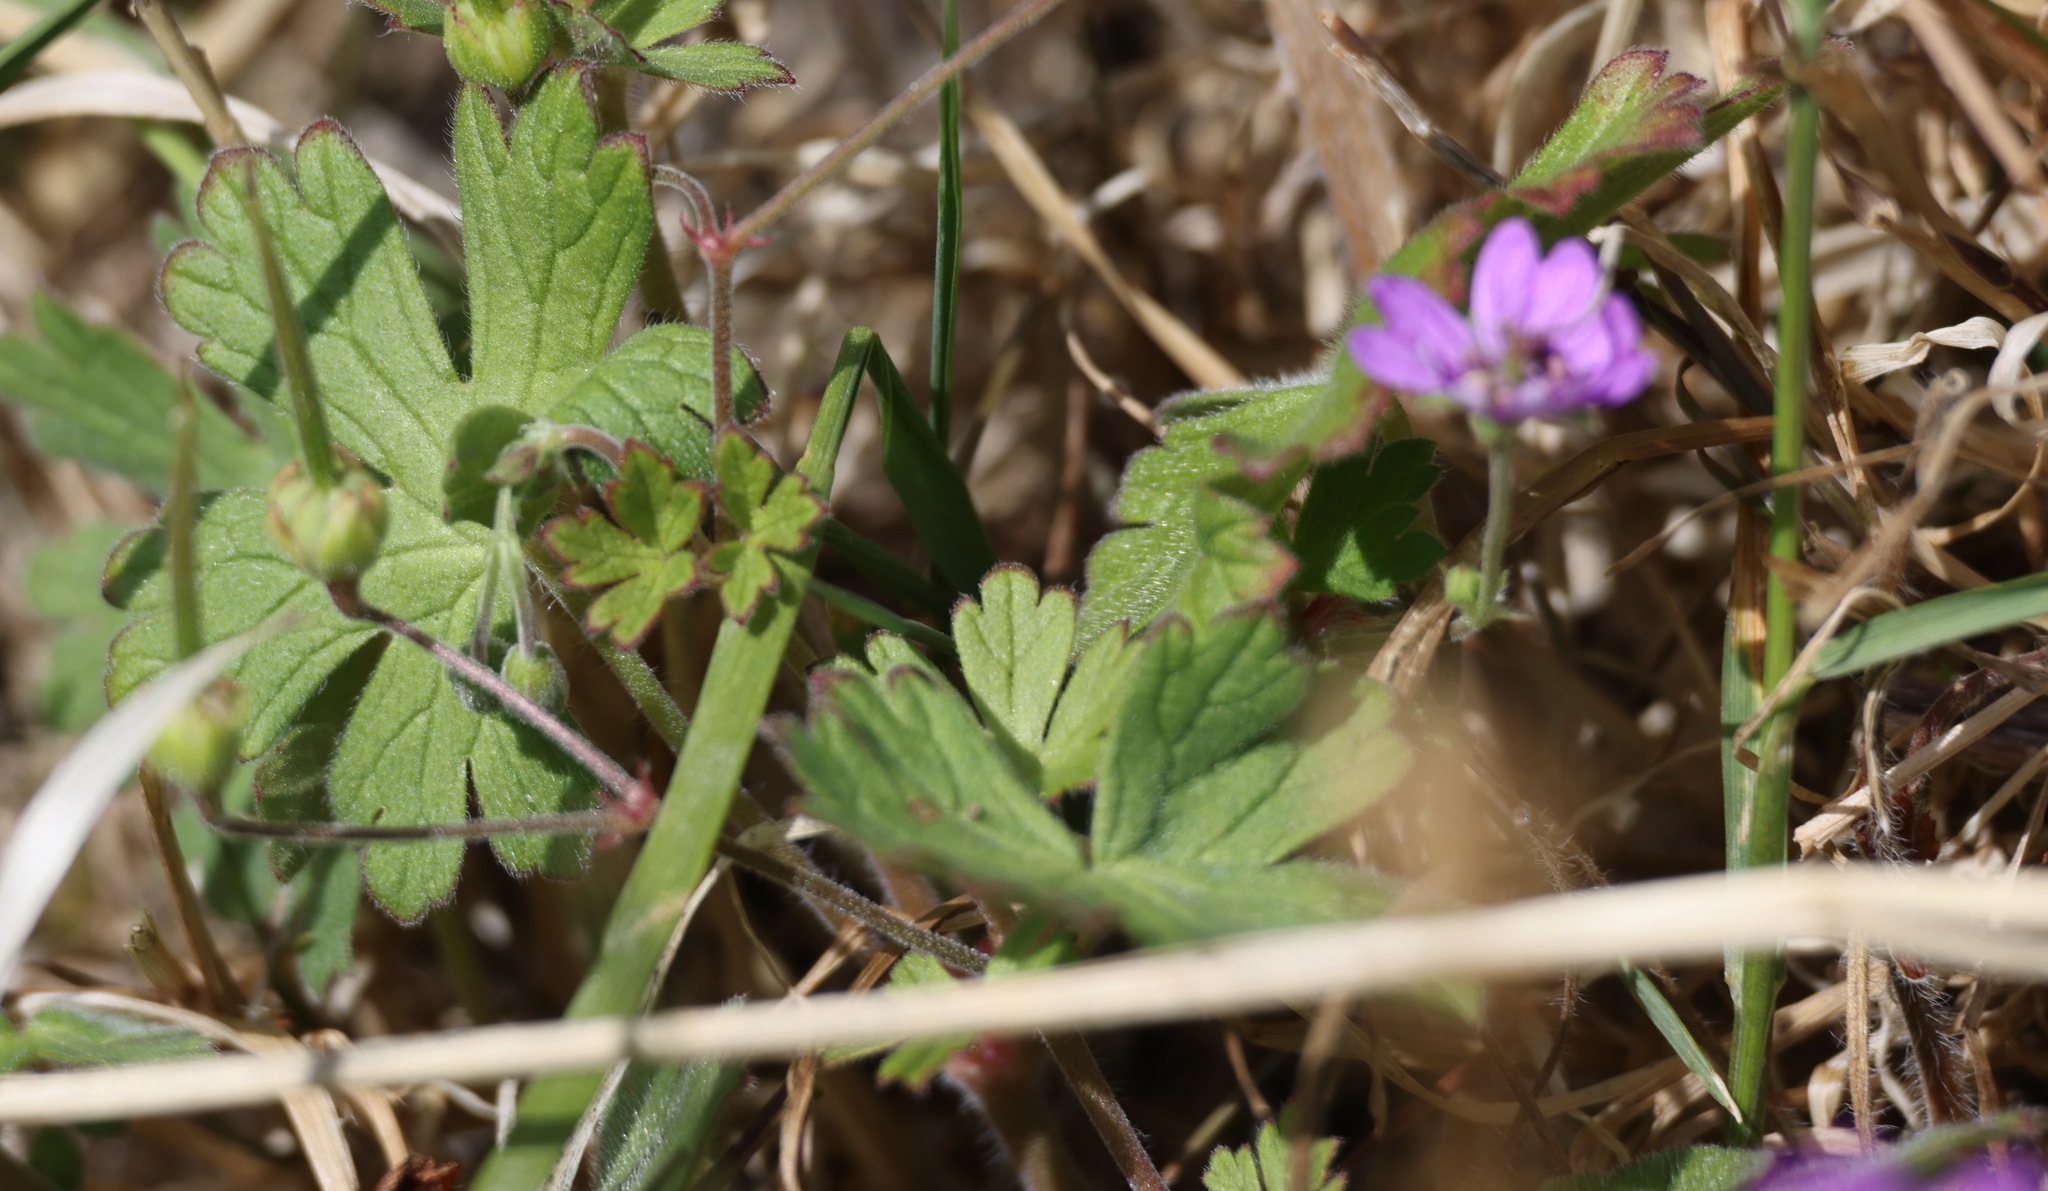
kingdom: Plantae
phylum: Tracheophyta
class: Magnoliopsida
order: Geraniales
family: Geraniaceae
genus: Geranium
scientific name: Geranium molle
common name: Dove's-foot crane's-bill
